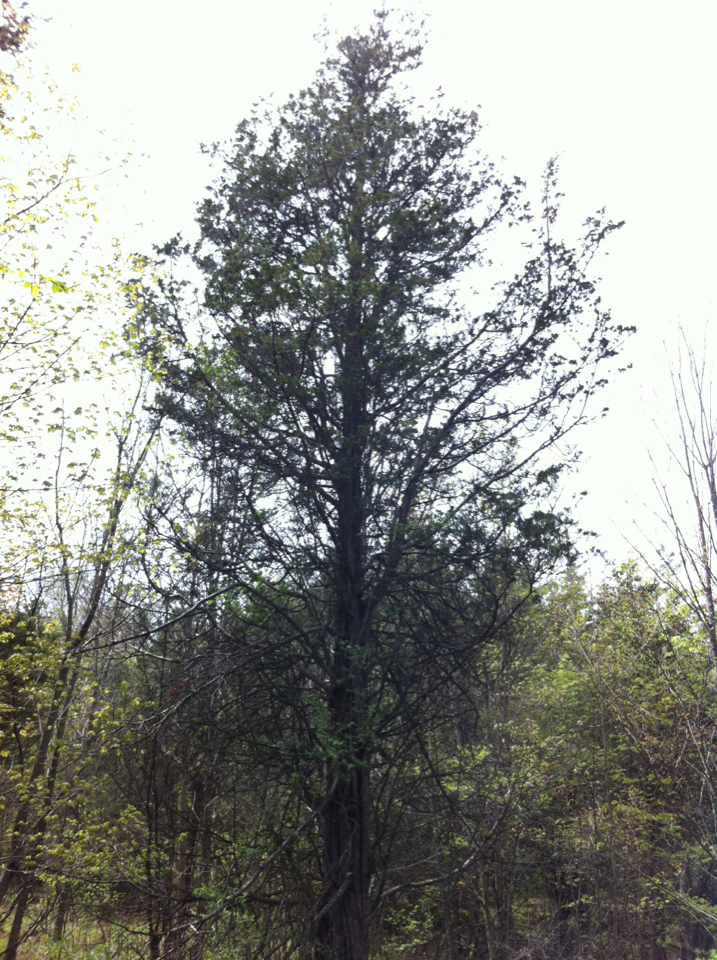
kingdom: Plantae
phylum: Tracheophyta
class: Pinopsida
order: Pinales
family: Cupressaceae
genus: Juniperus
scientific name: Juniperus virginiana
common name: Red juniper
